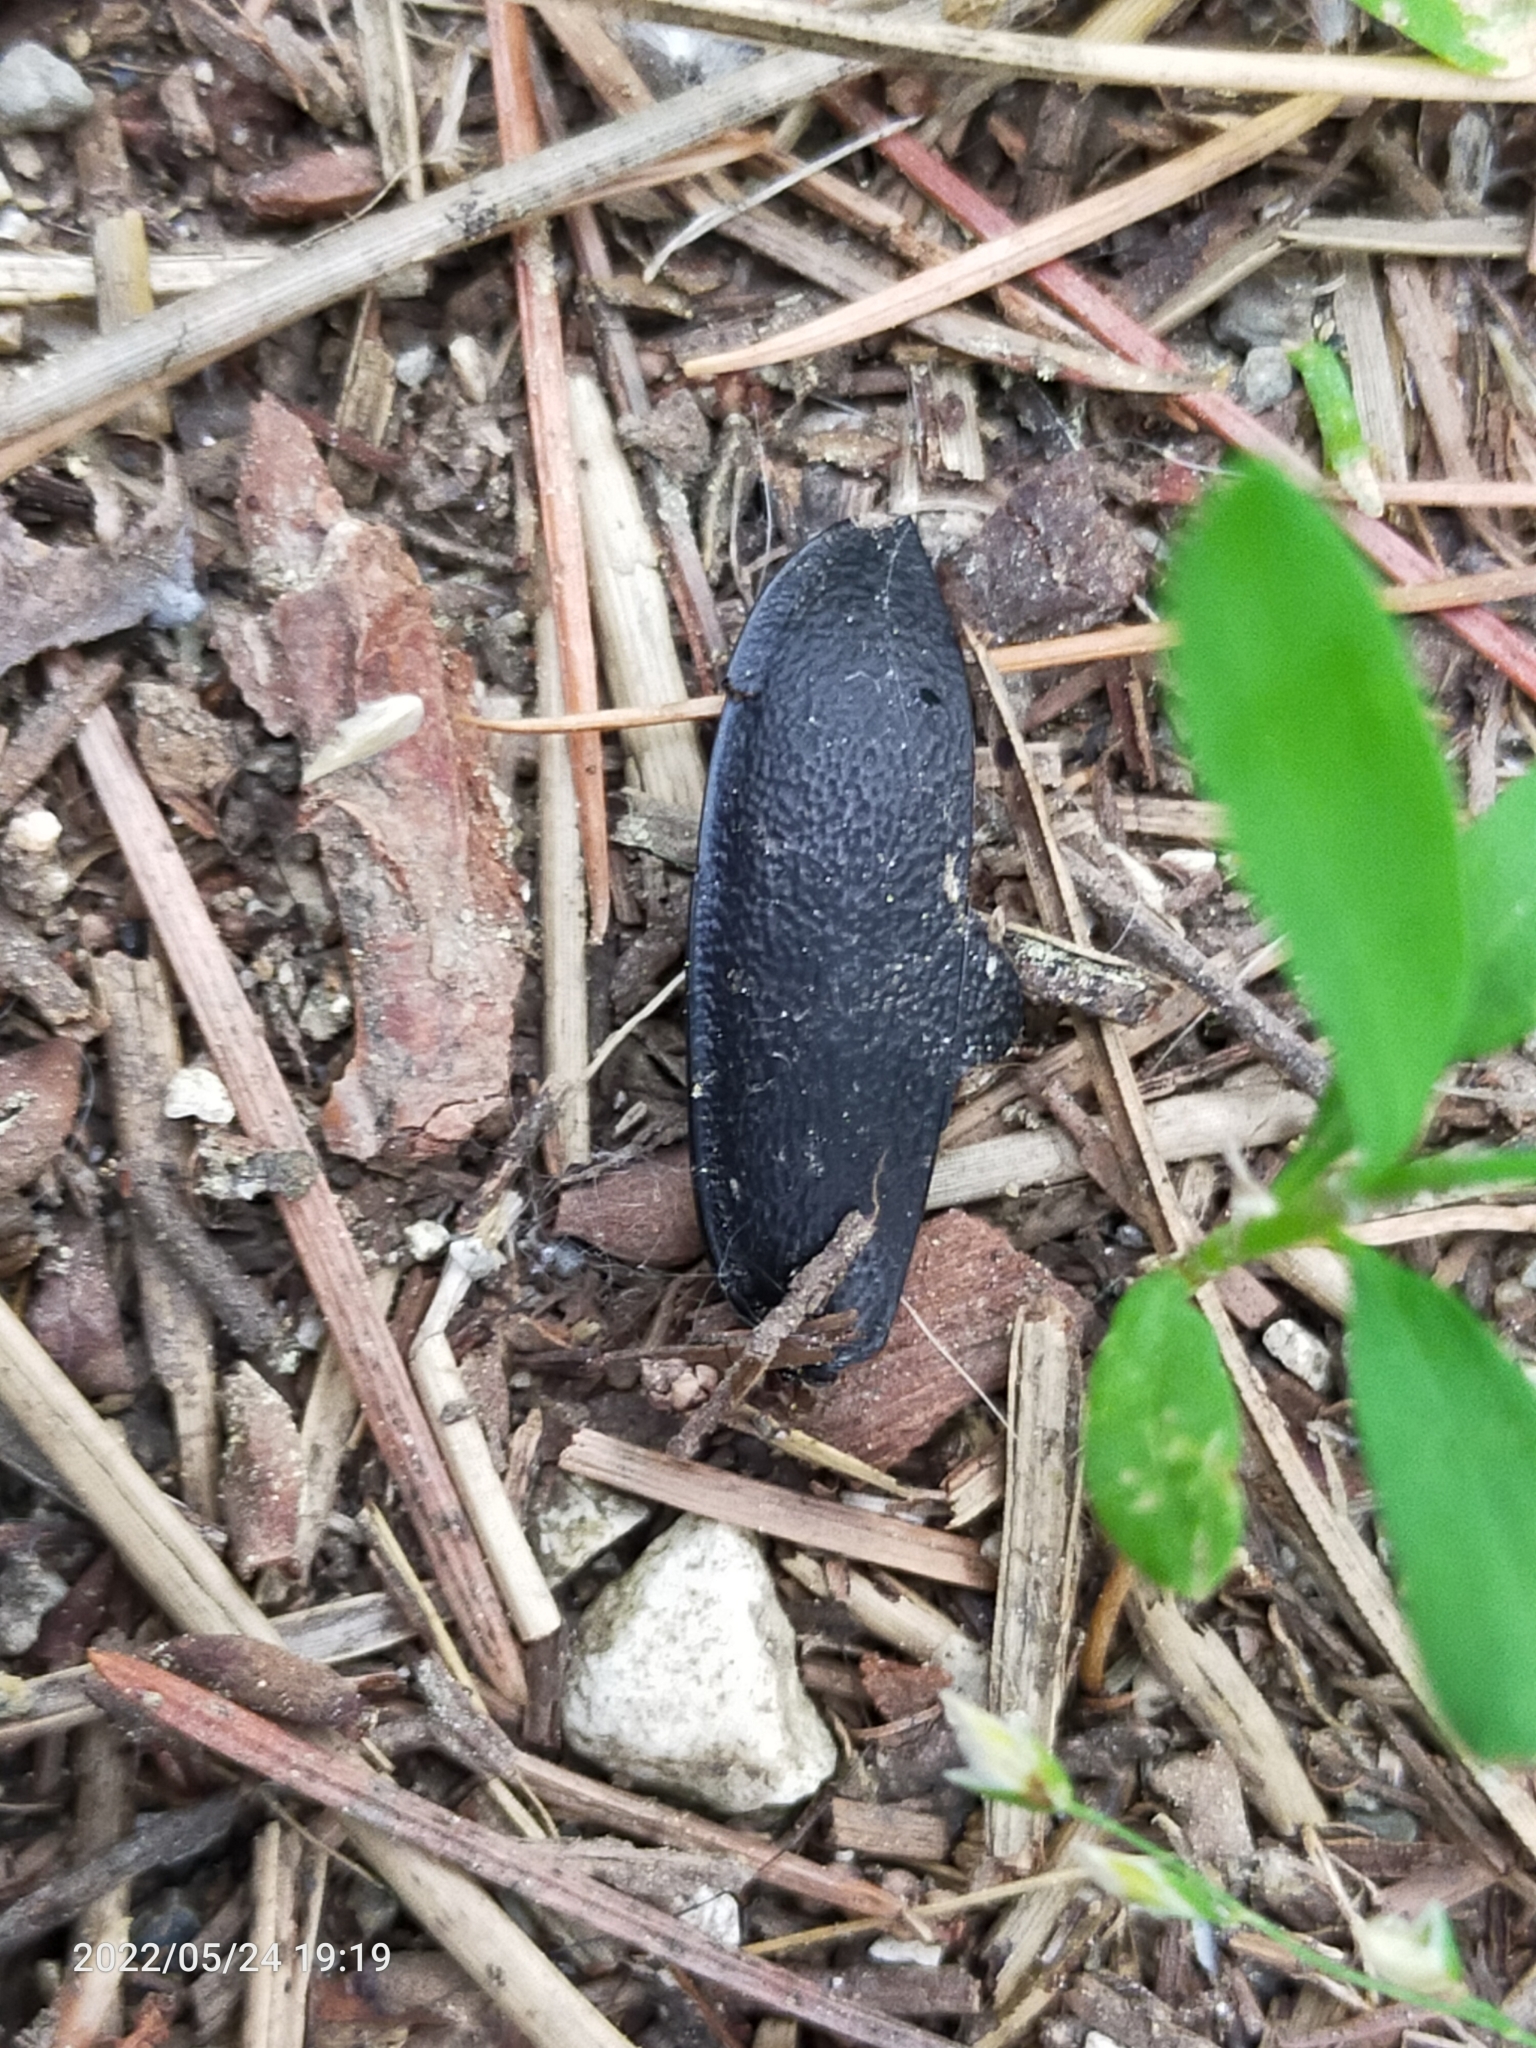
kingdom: Animalia
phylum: Arthropoda
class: Insecta
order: Coleoptera
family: Carabidae
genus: Carabus
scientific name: Carabus coriaceus
